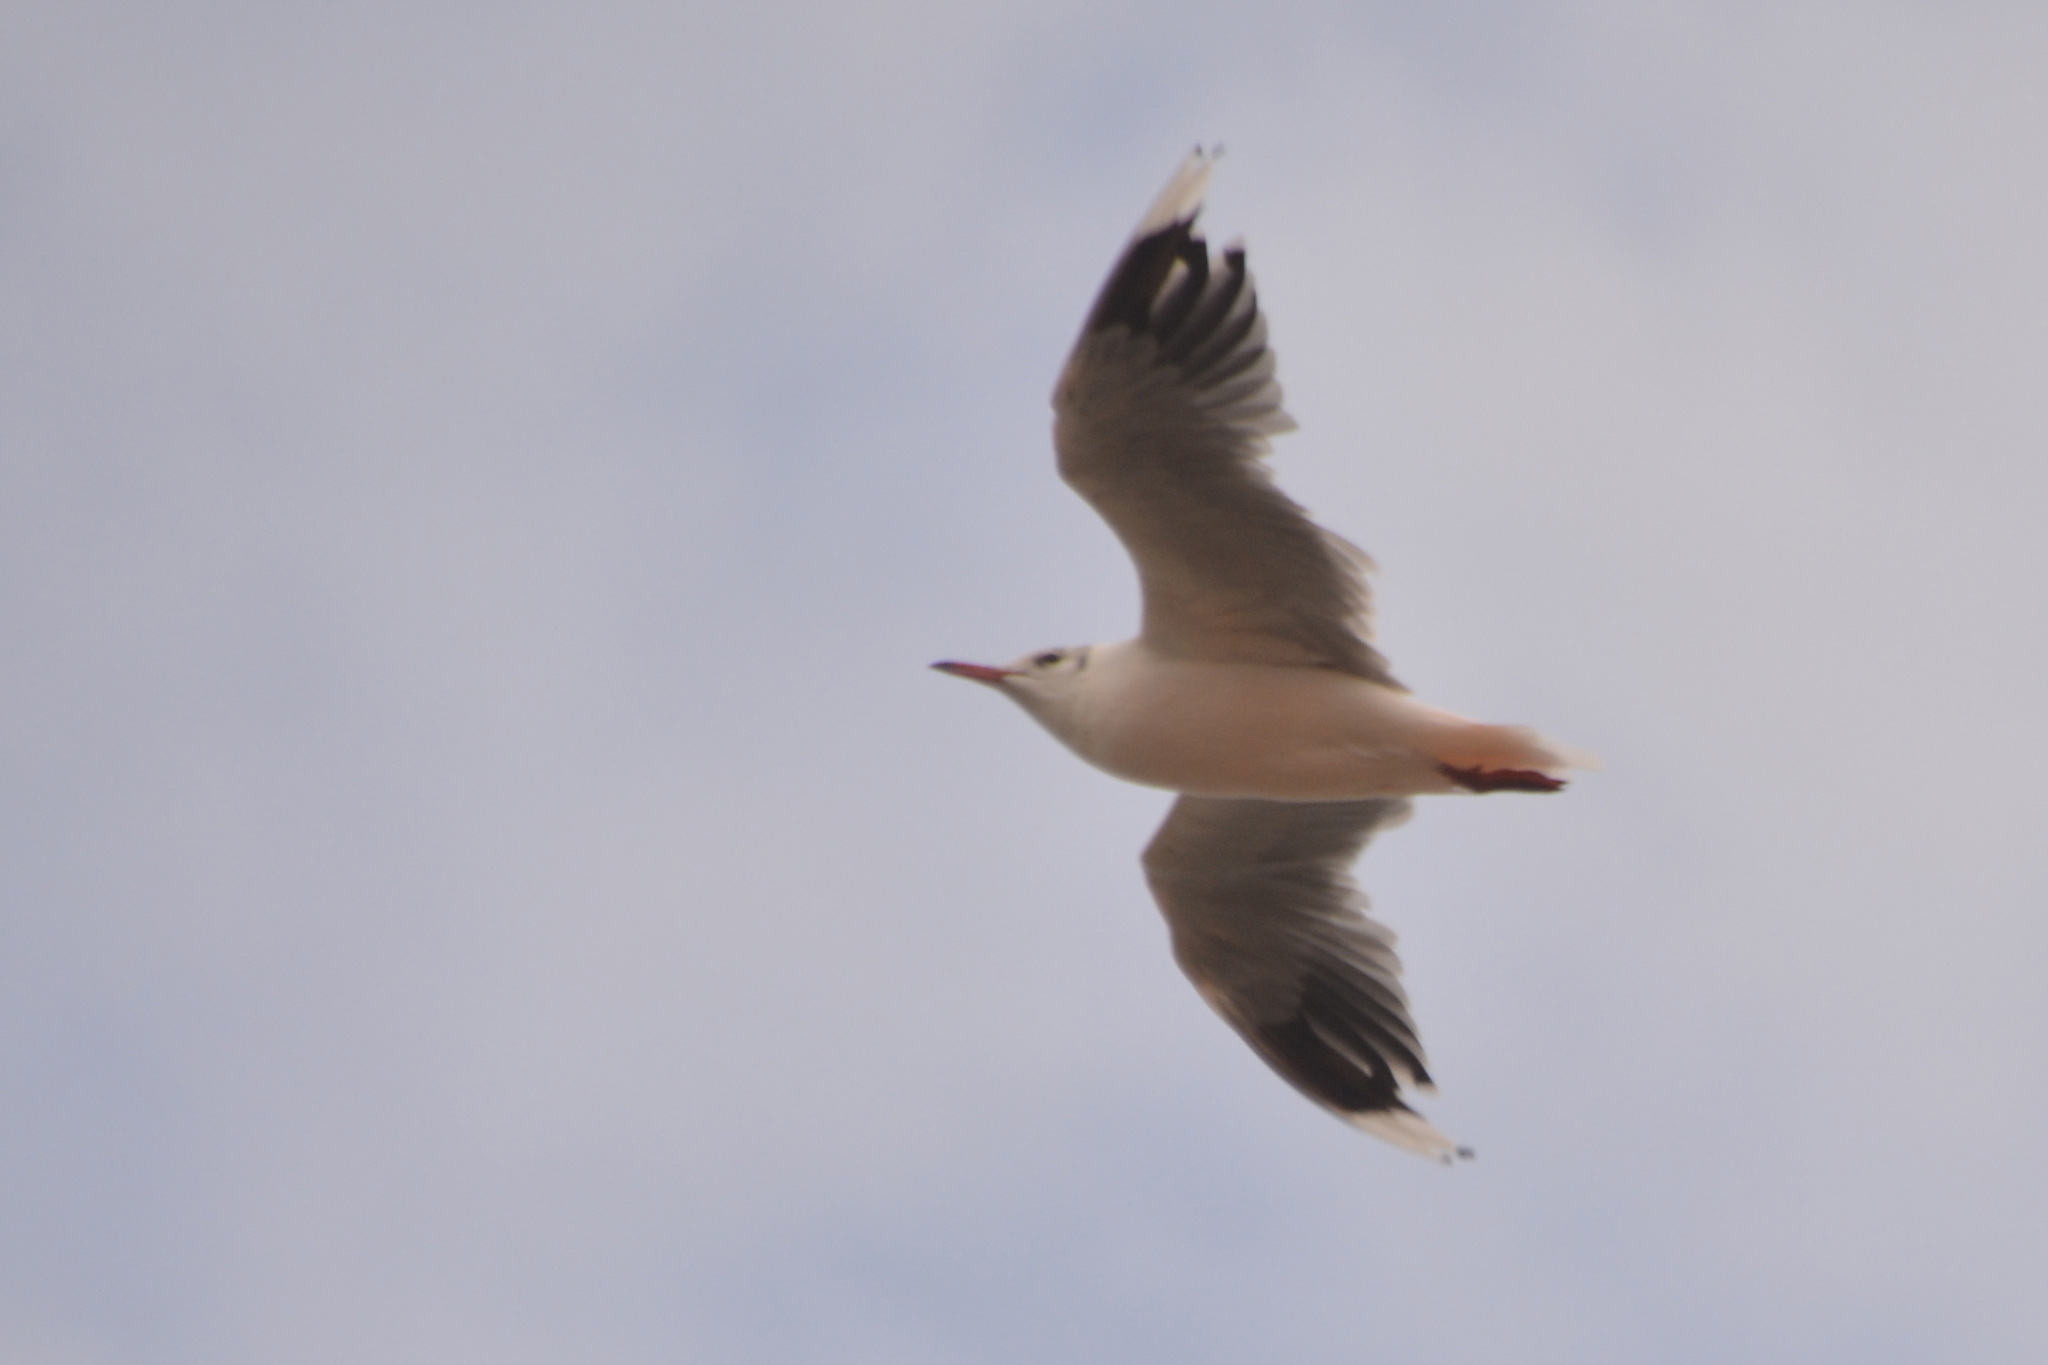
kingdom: Animalia
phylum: Chordata
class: Aves
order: Charadriiformes
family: Laridae
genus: Chroicocephalus
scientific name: Chroicocephalus maculipennis
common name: Brown-hooded gull
